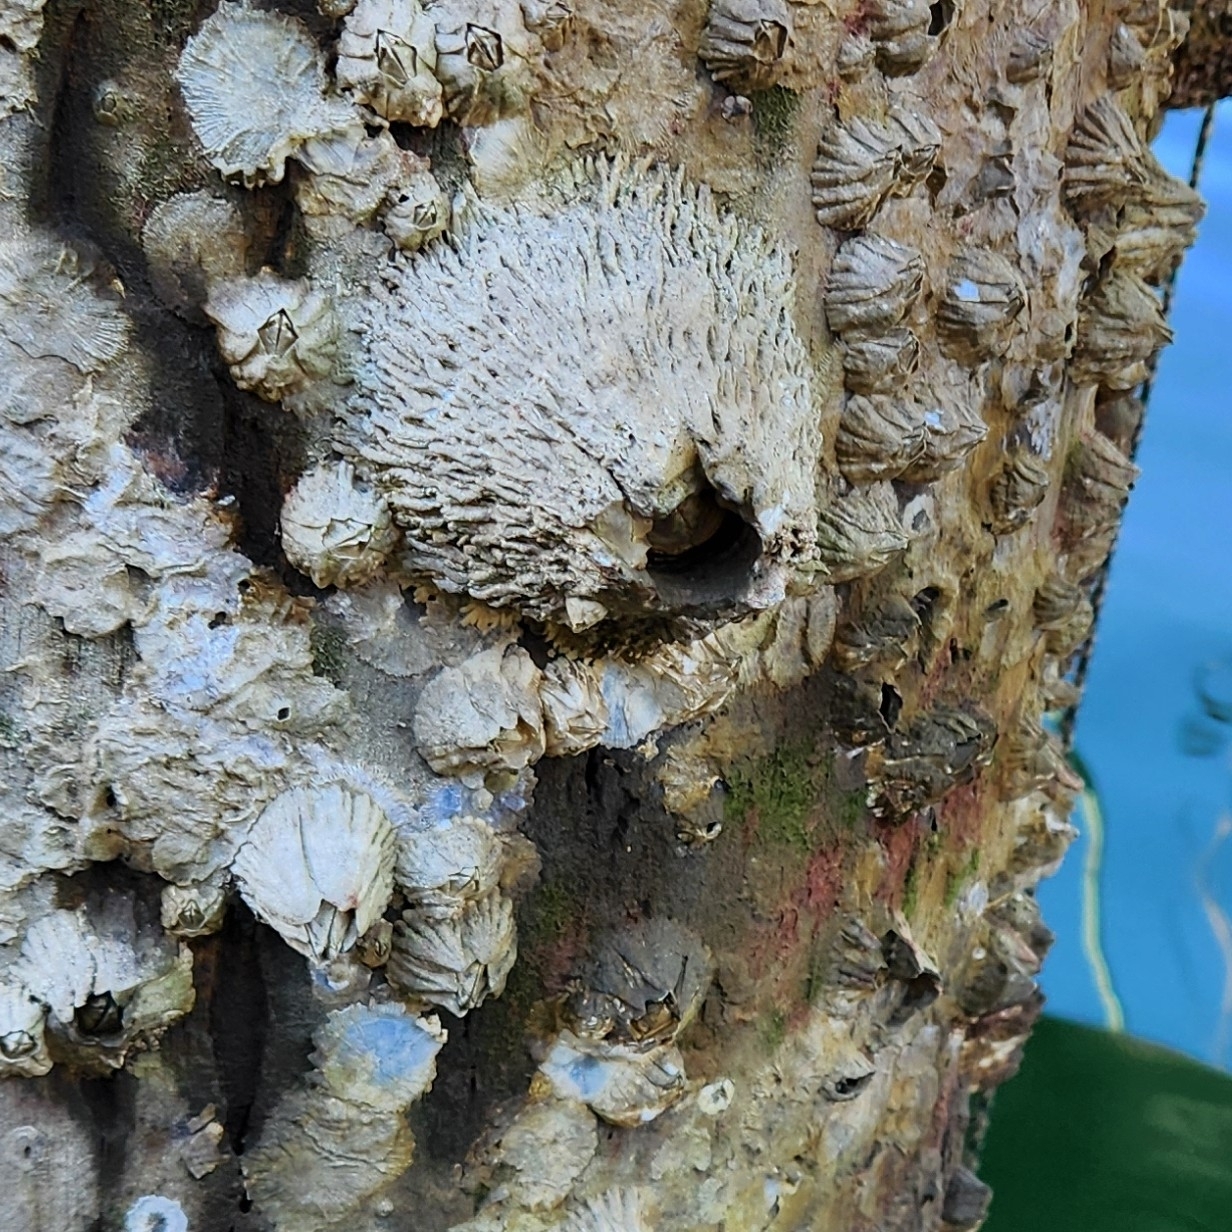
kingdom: Animalia
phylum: Arthropoda
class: Maxillopoda
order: Sessilia
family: Archaeobalanidae
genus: Semibalanus
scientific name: Semibalanus cariosus
